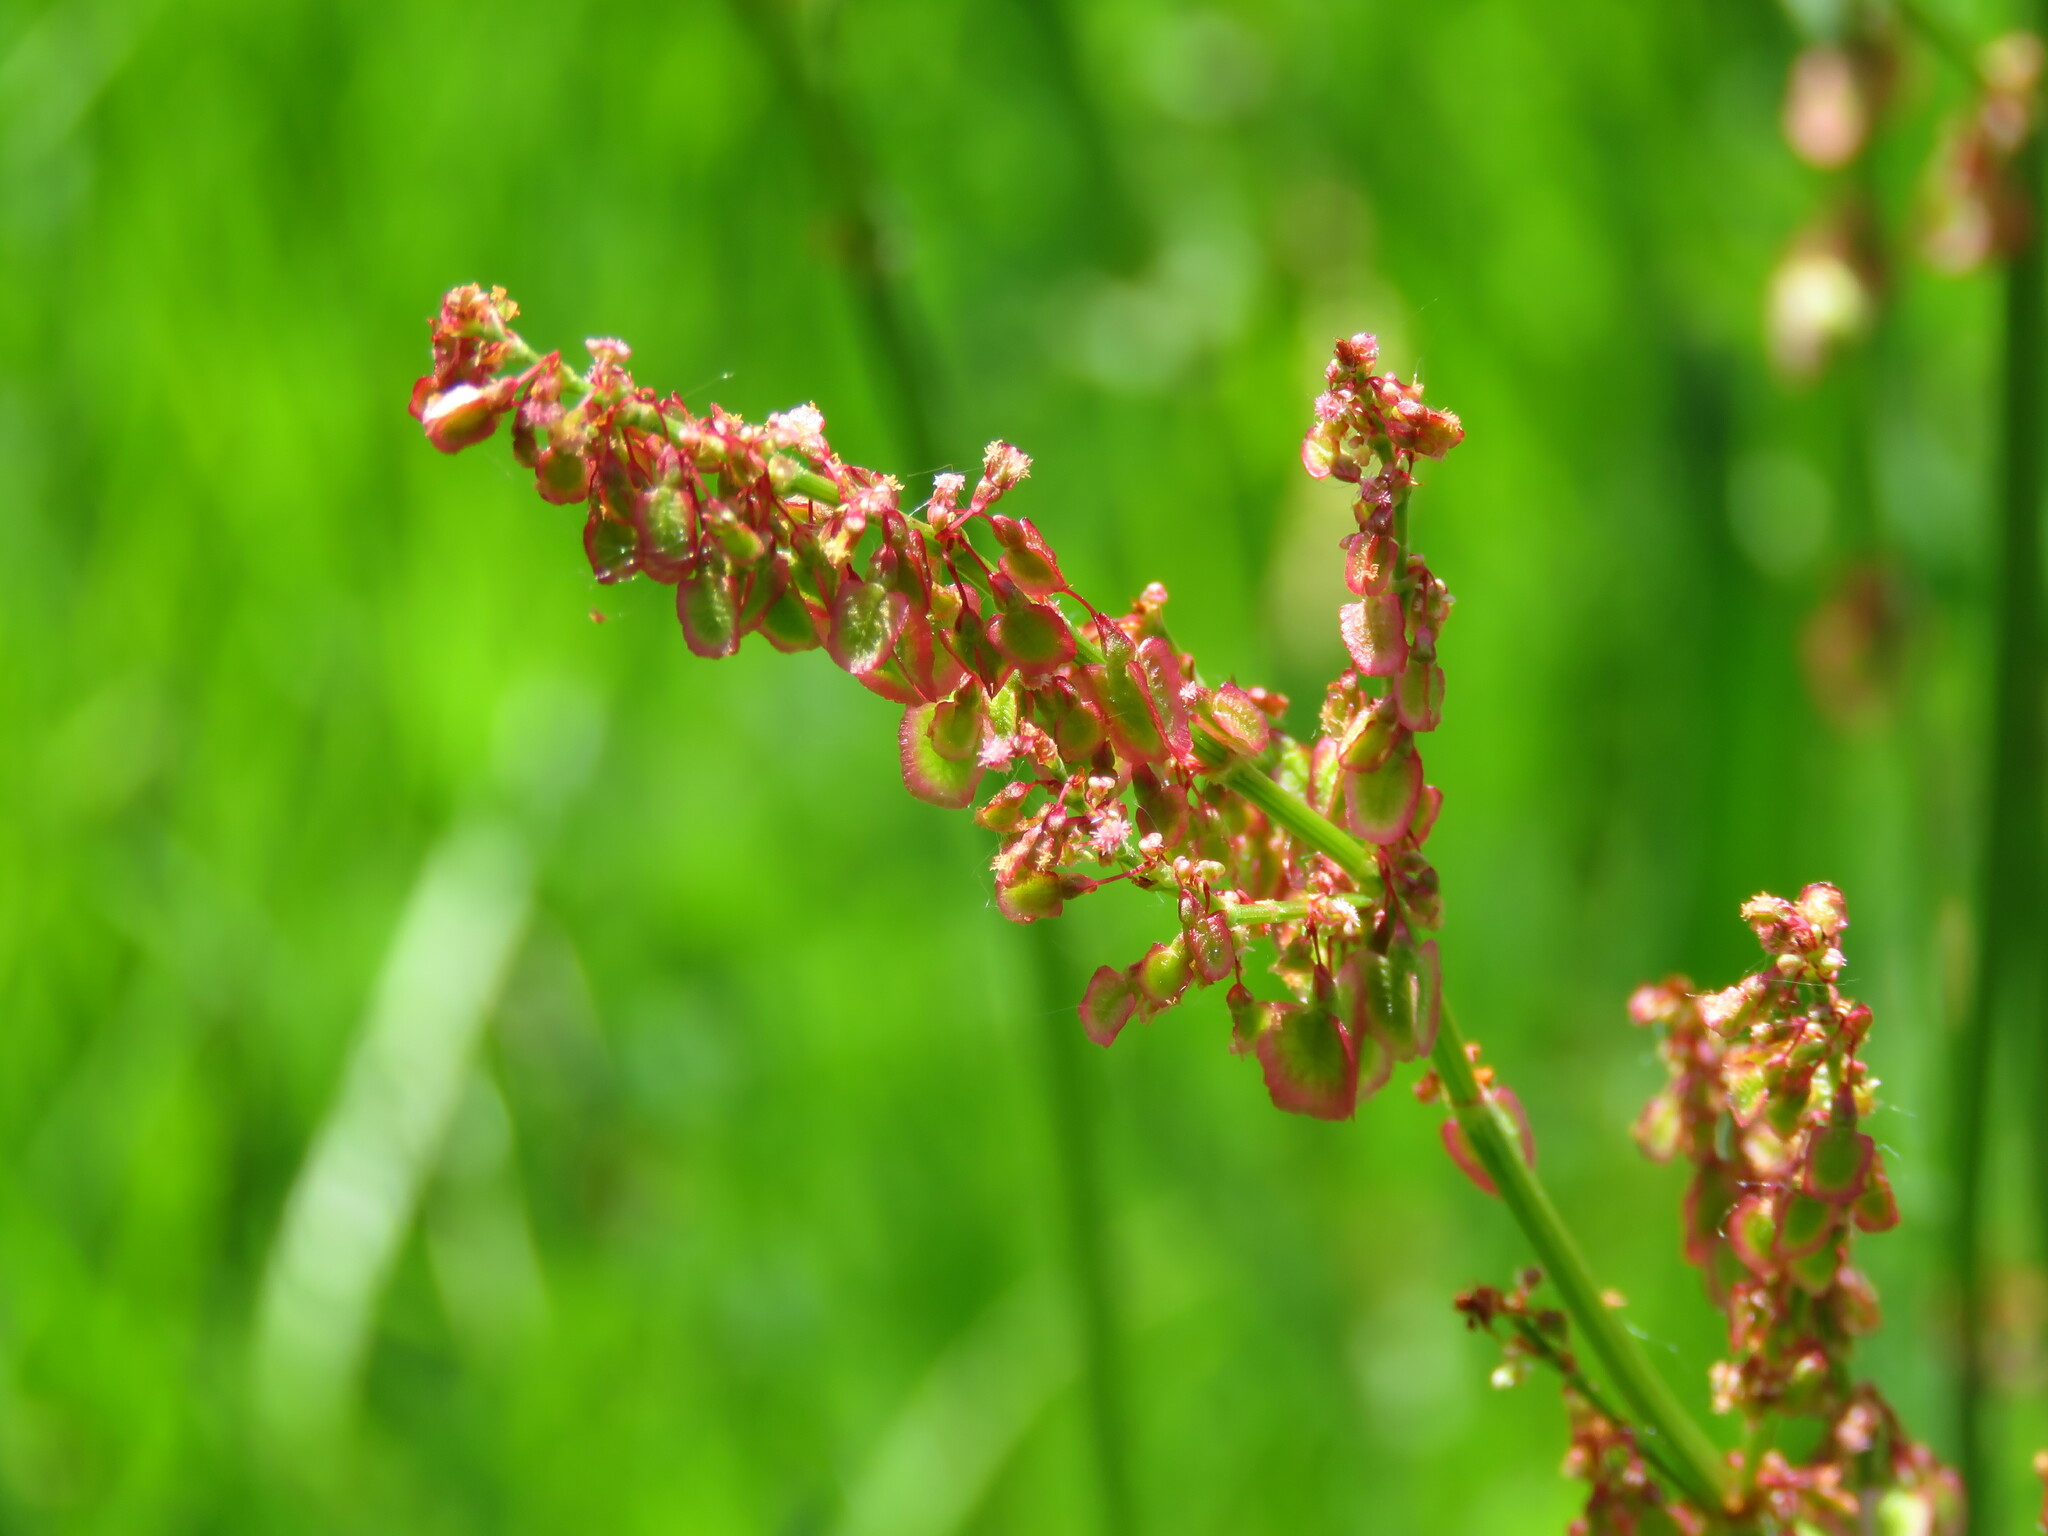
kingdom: Plantae
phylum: Tracheophyta
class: Magnoliopsida
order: Caryophyllales
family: Polygonaceae
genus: Rumex
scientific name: Rumex acetosa
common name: Garden sorrel
